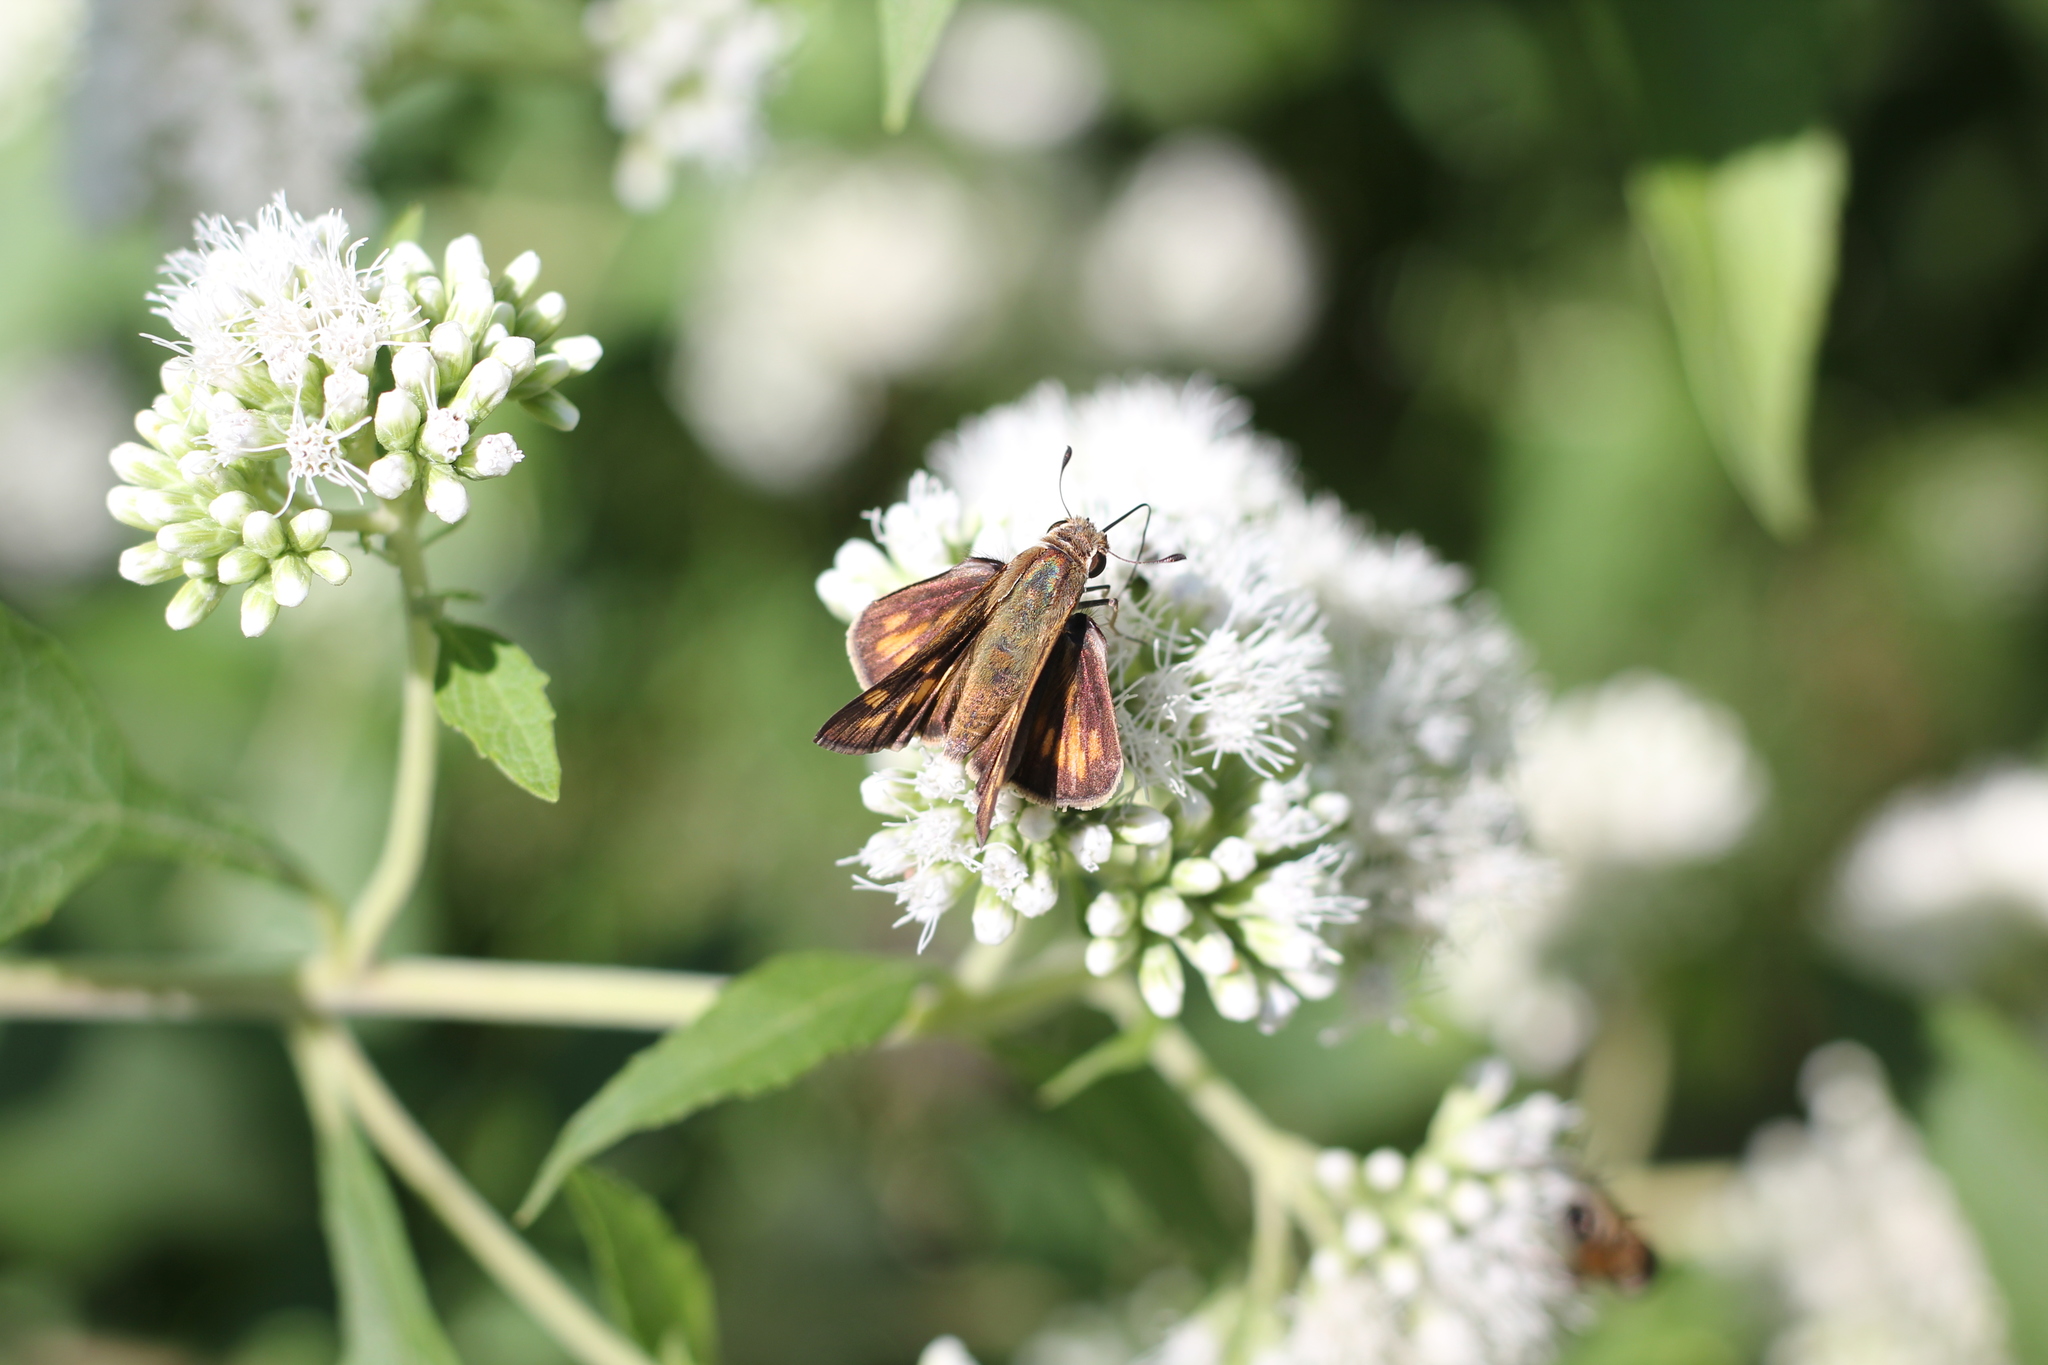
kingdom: Animalia
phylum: Arthropoda
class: Insecta
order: Lepidoptera
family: Hesperiidae
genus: Hylephila
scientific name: Hylephila phyleus
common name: Fiery skipper
